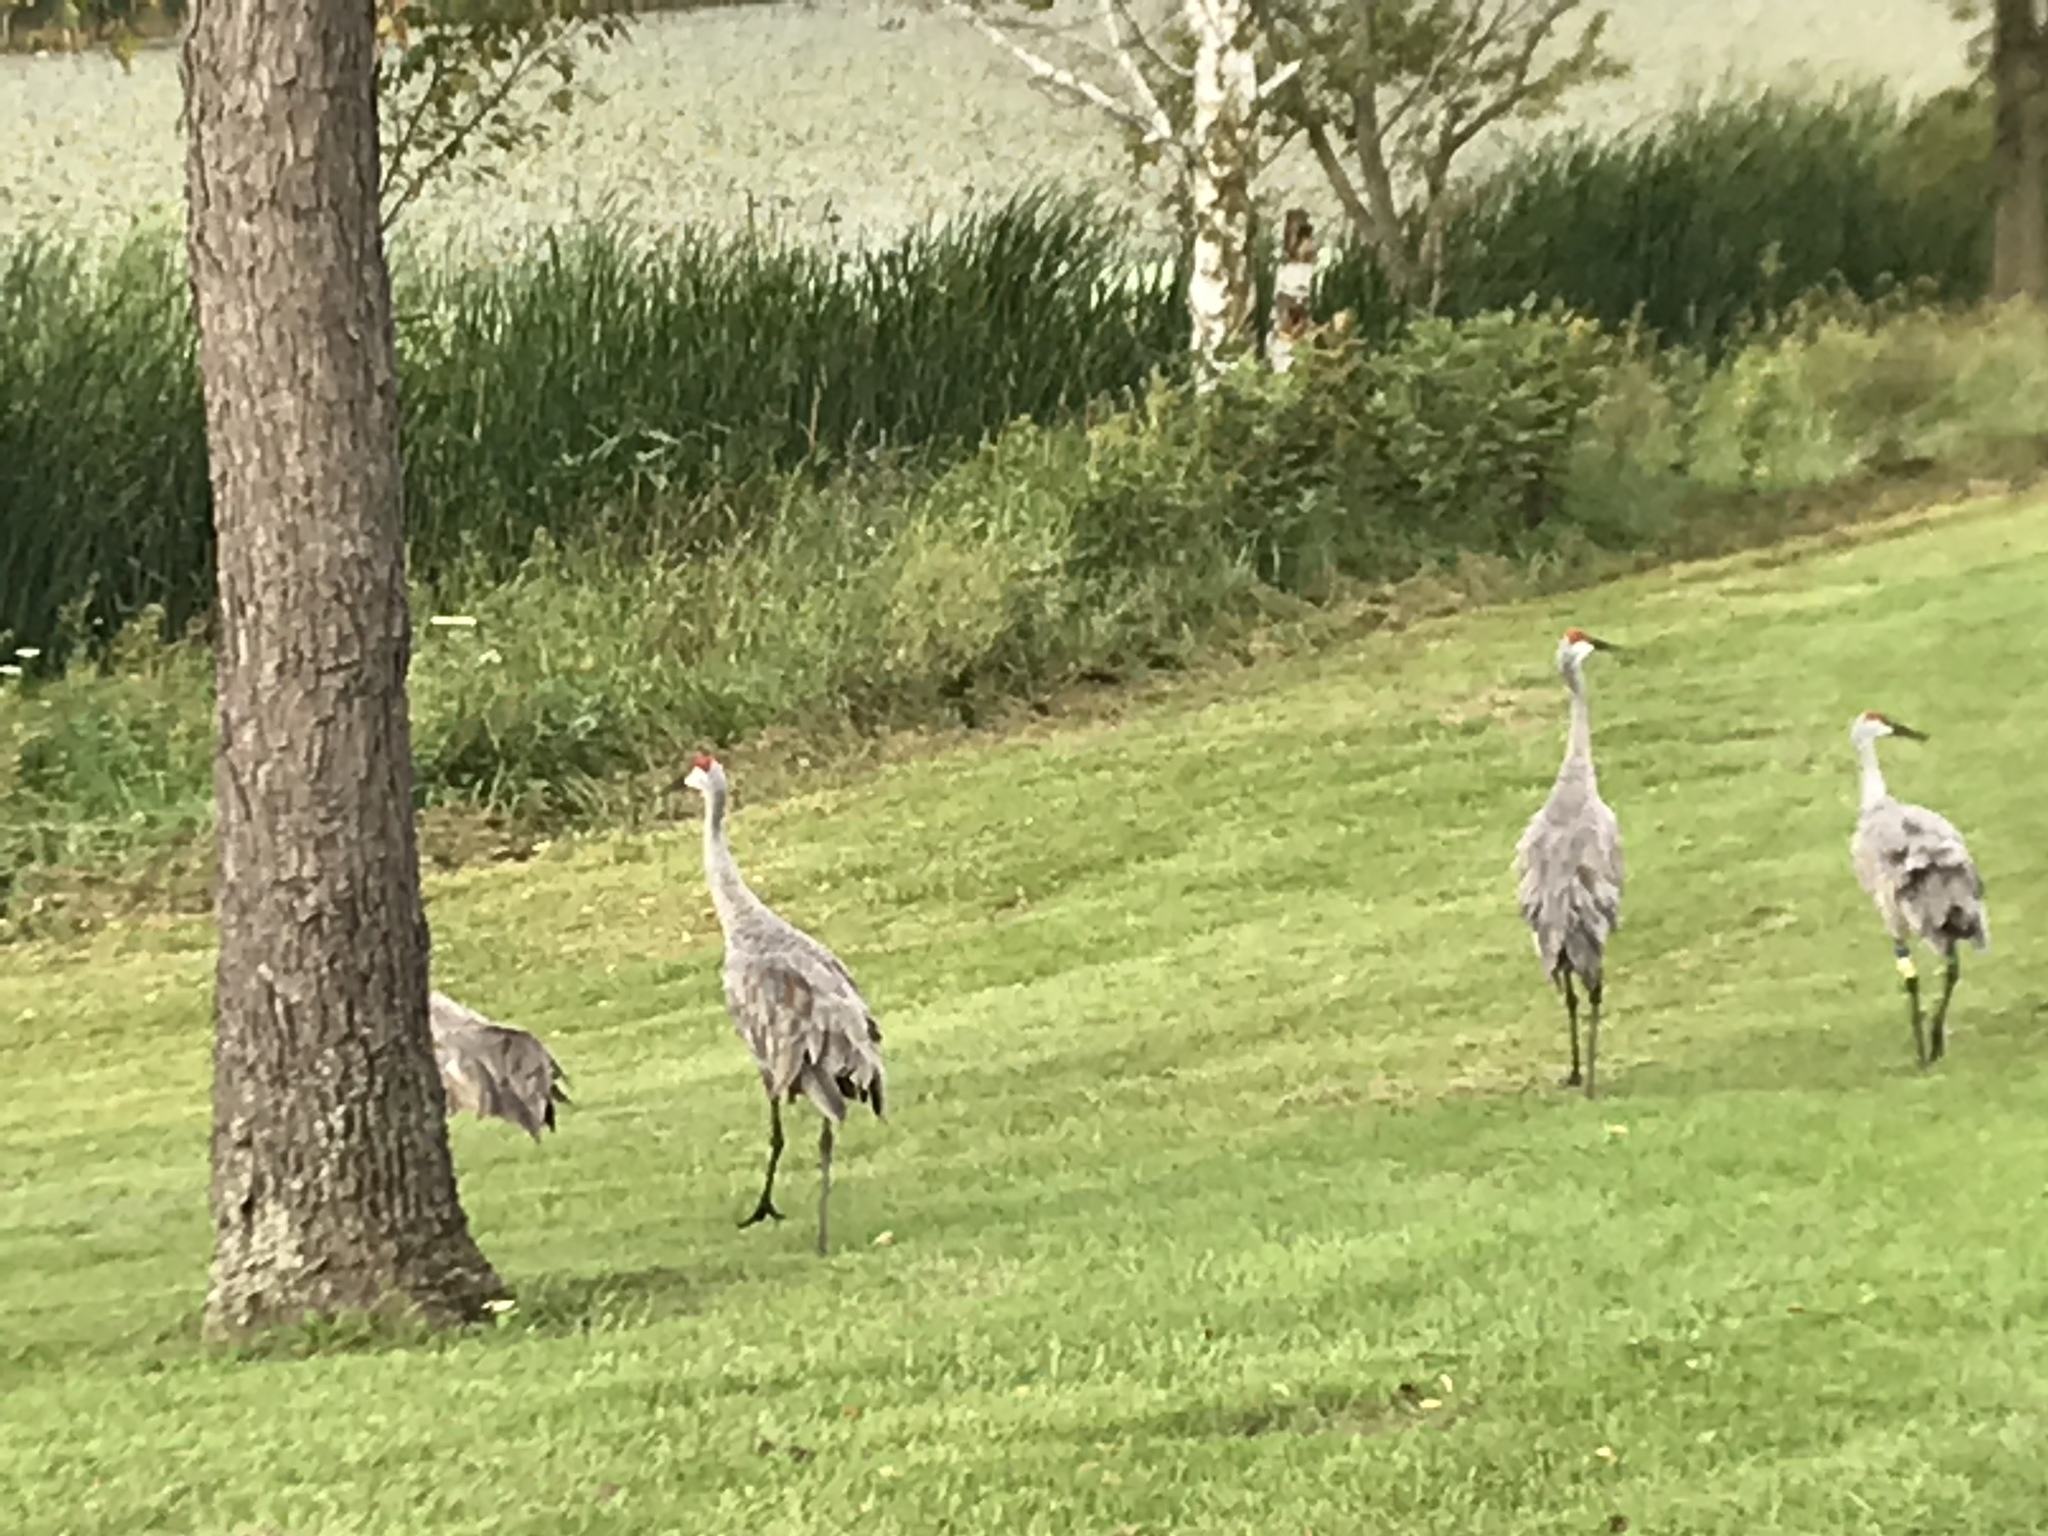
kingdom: Animalia
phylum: Chordata
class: Aves
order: Gruiformes
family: Gruidae
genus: Grus
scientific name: Grus canadensis
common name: Sandhill crane
